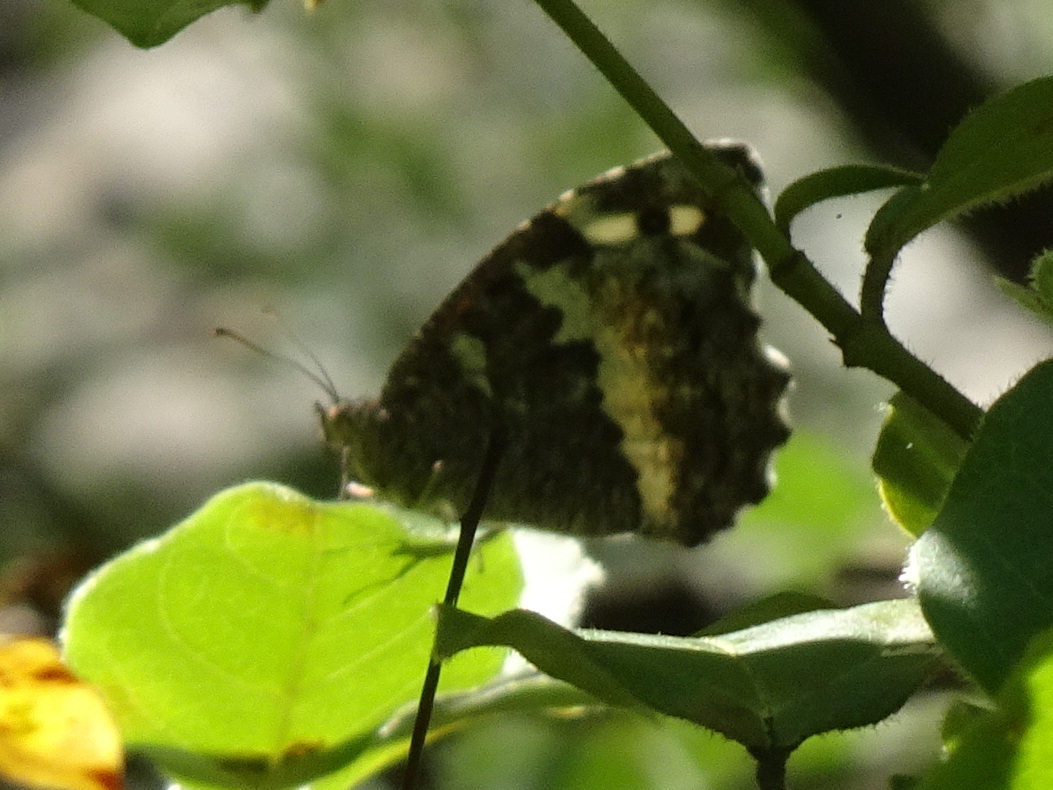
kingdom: Animalia
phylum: Arthropoda
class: Insecta
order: Lepidoptera
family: Lycaenidae
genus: Loweia
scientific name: Loweia tityrus
